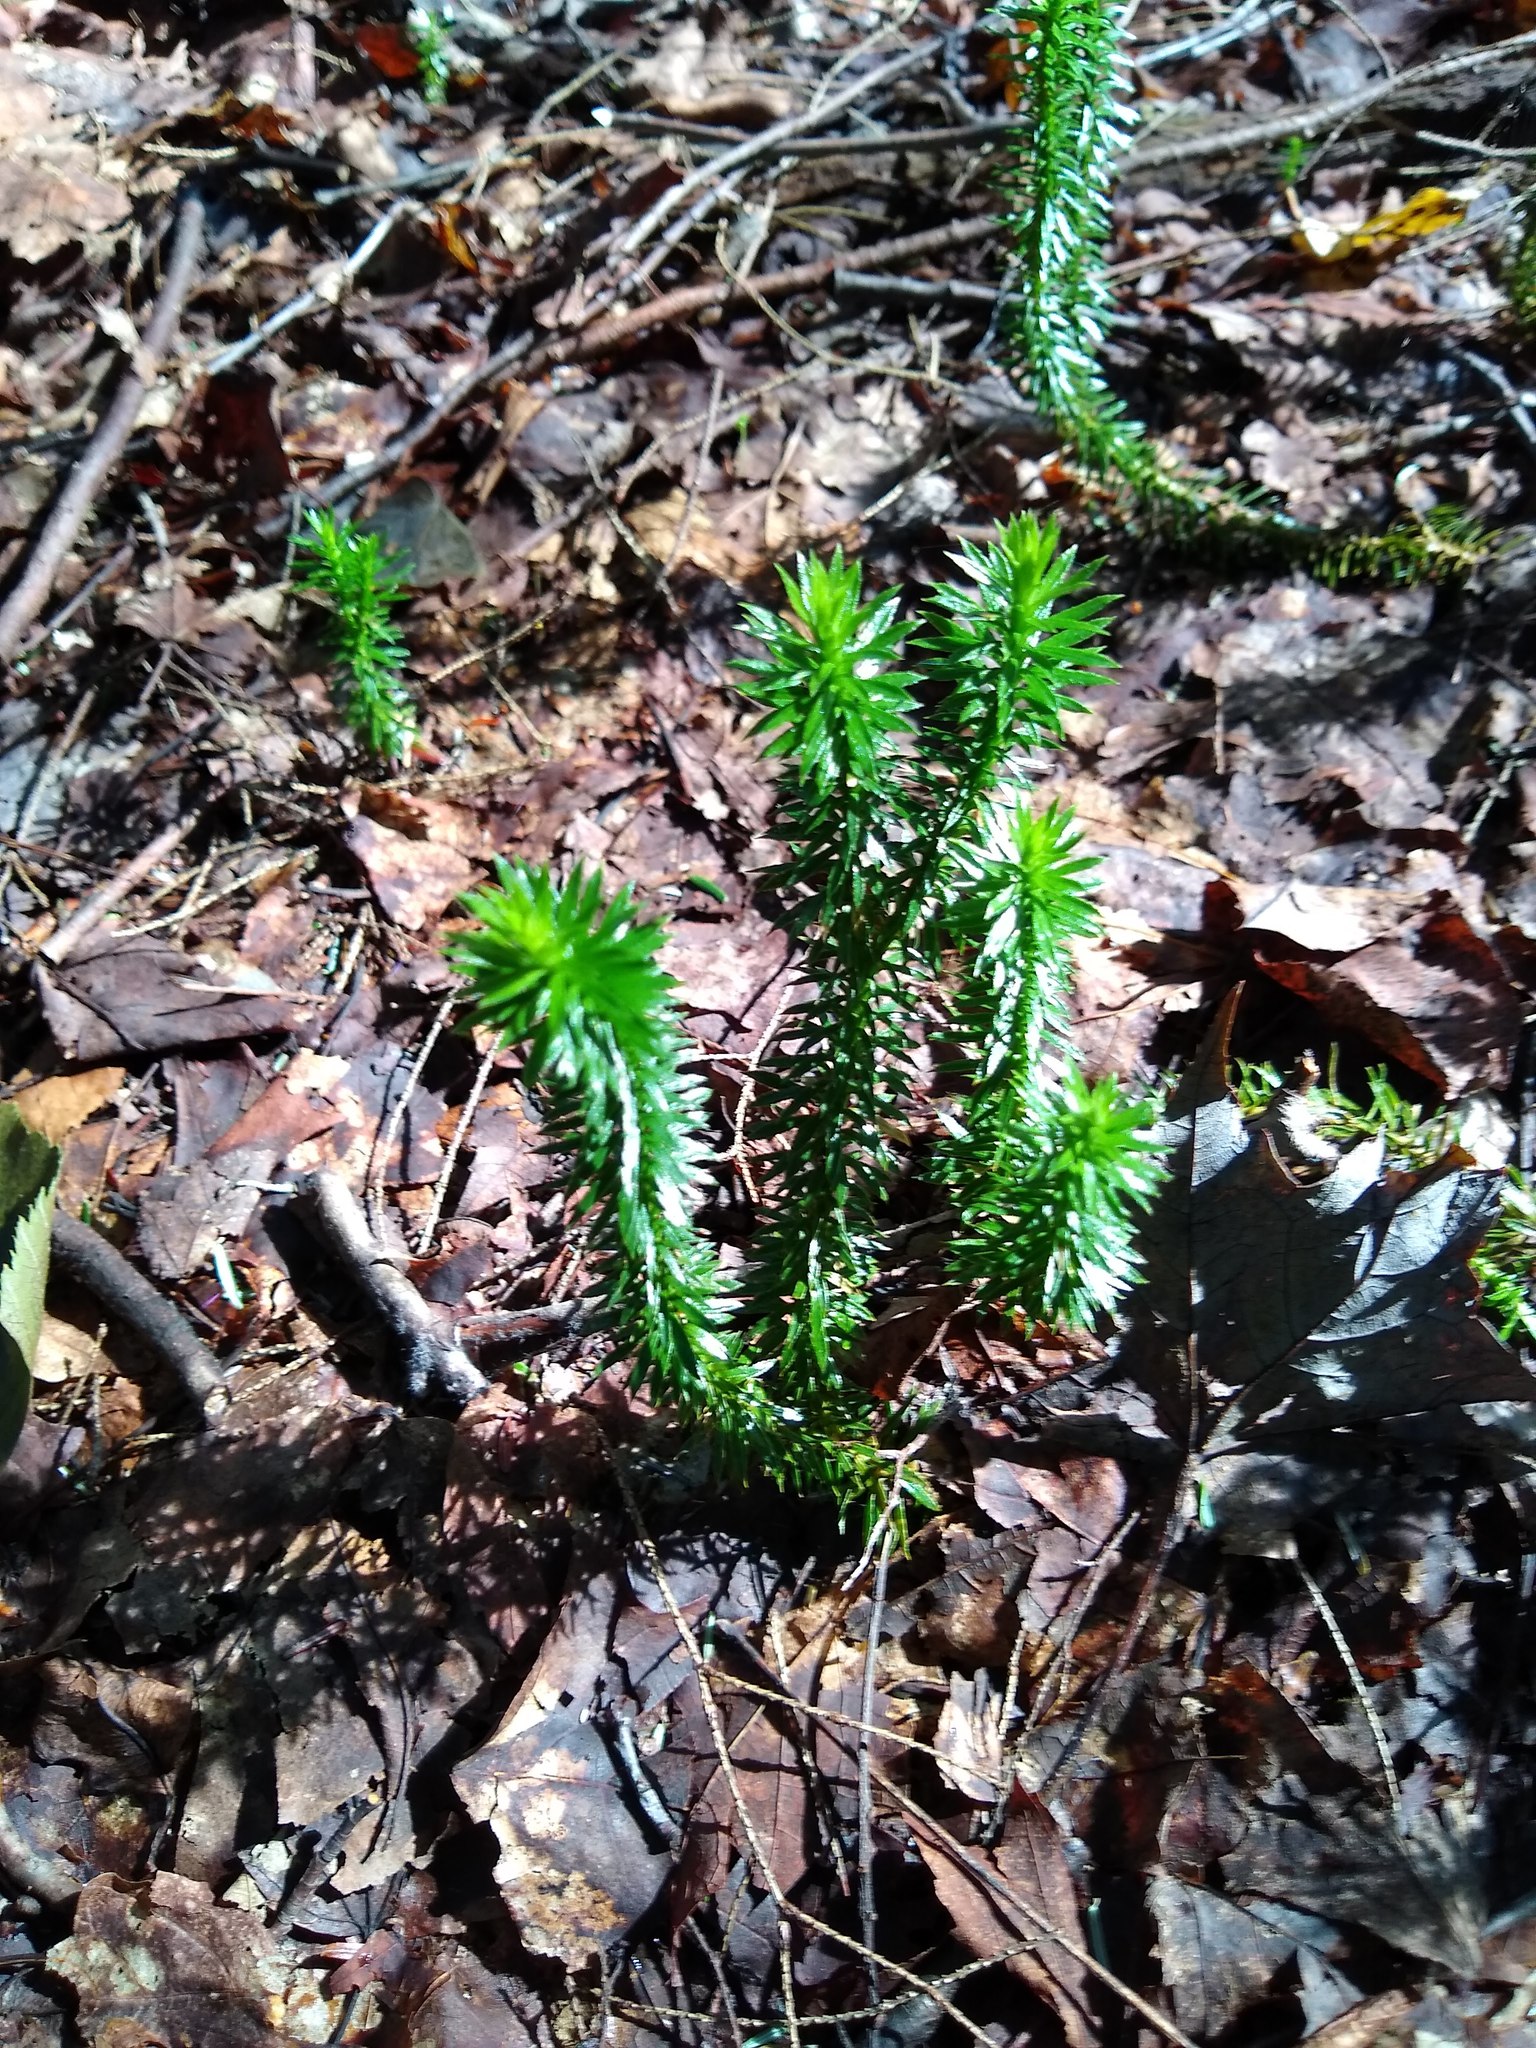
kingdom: Plantae
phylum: Tracheophyta
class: Lycopodiopsida
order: Lycopodiales
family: Lycopodiaceae
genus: Huperzia
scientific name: Huperzia lucidula
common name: Shining clubmoss
